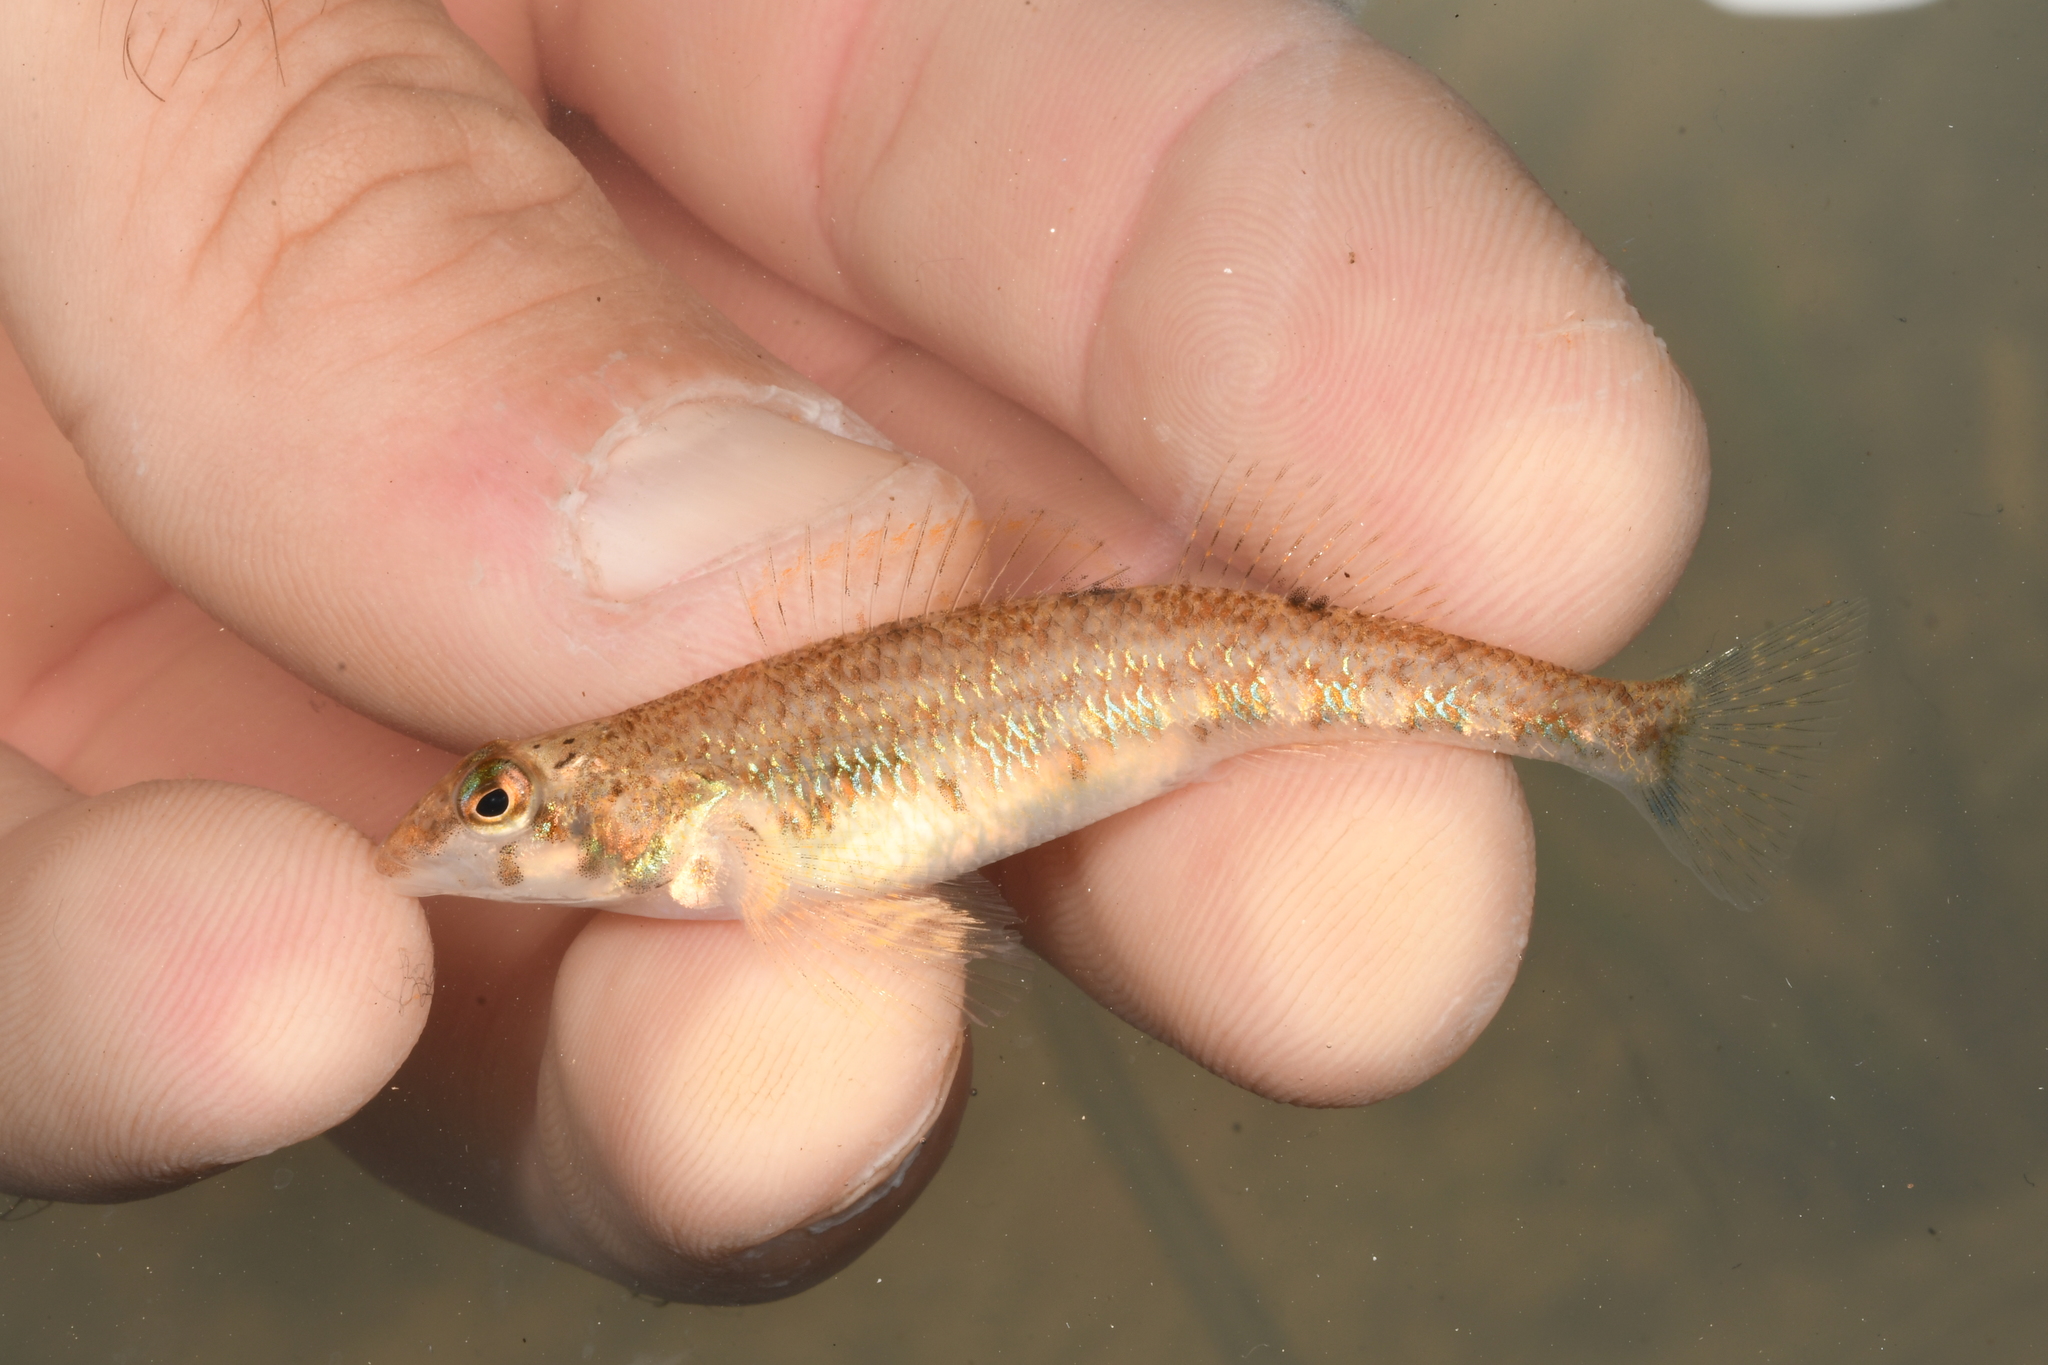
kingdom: Animalia
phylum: Chordata
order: Perciformes
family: Percidae
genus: Etheostoma
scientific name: Etheostoma jessiae
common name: Blueside darter
